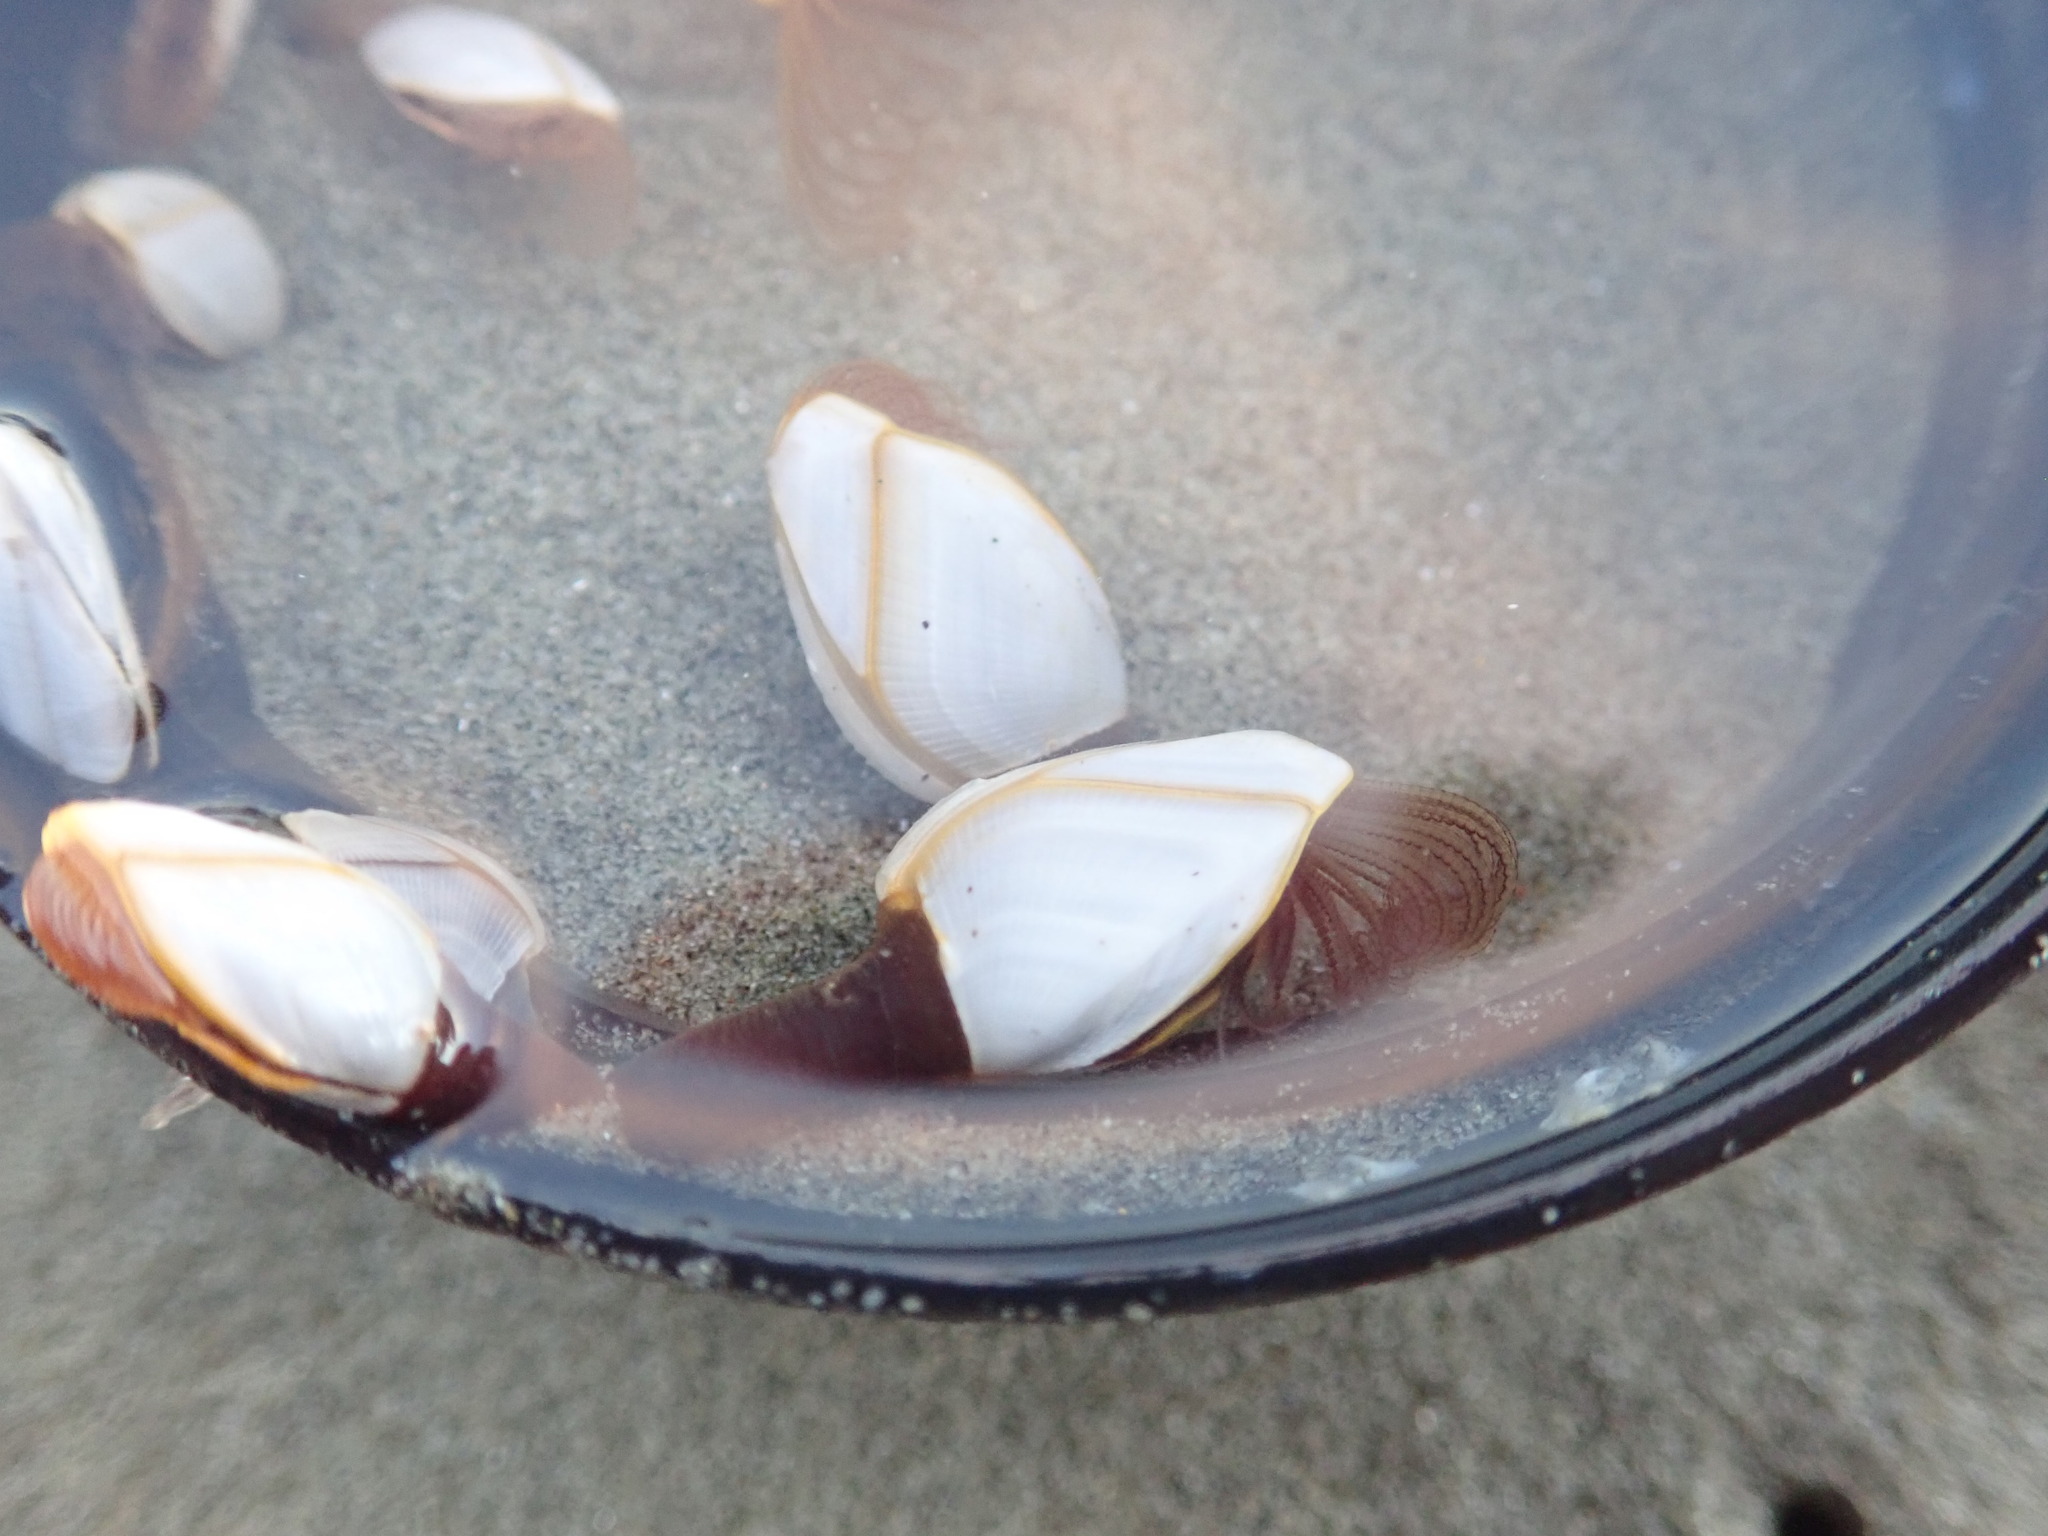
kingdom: Animalia
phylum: Arthropoda
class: Maxillopoda
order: Pedunculata
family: Lepadidae
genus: Lepas
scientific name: Lepas anserifera
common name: Goose barnacle
